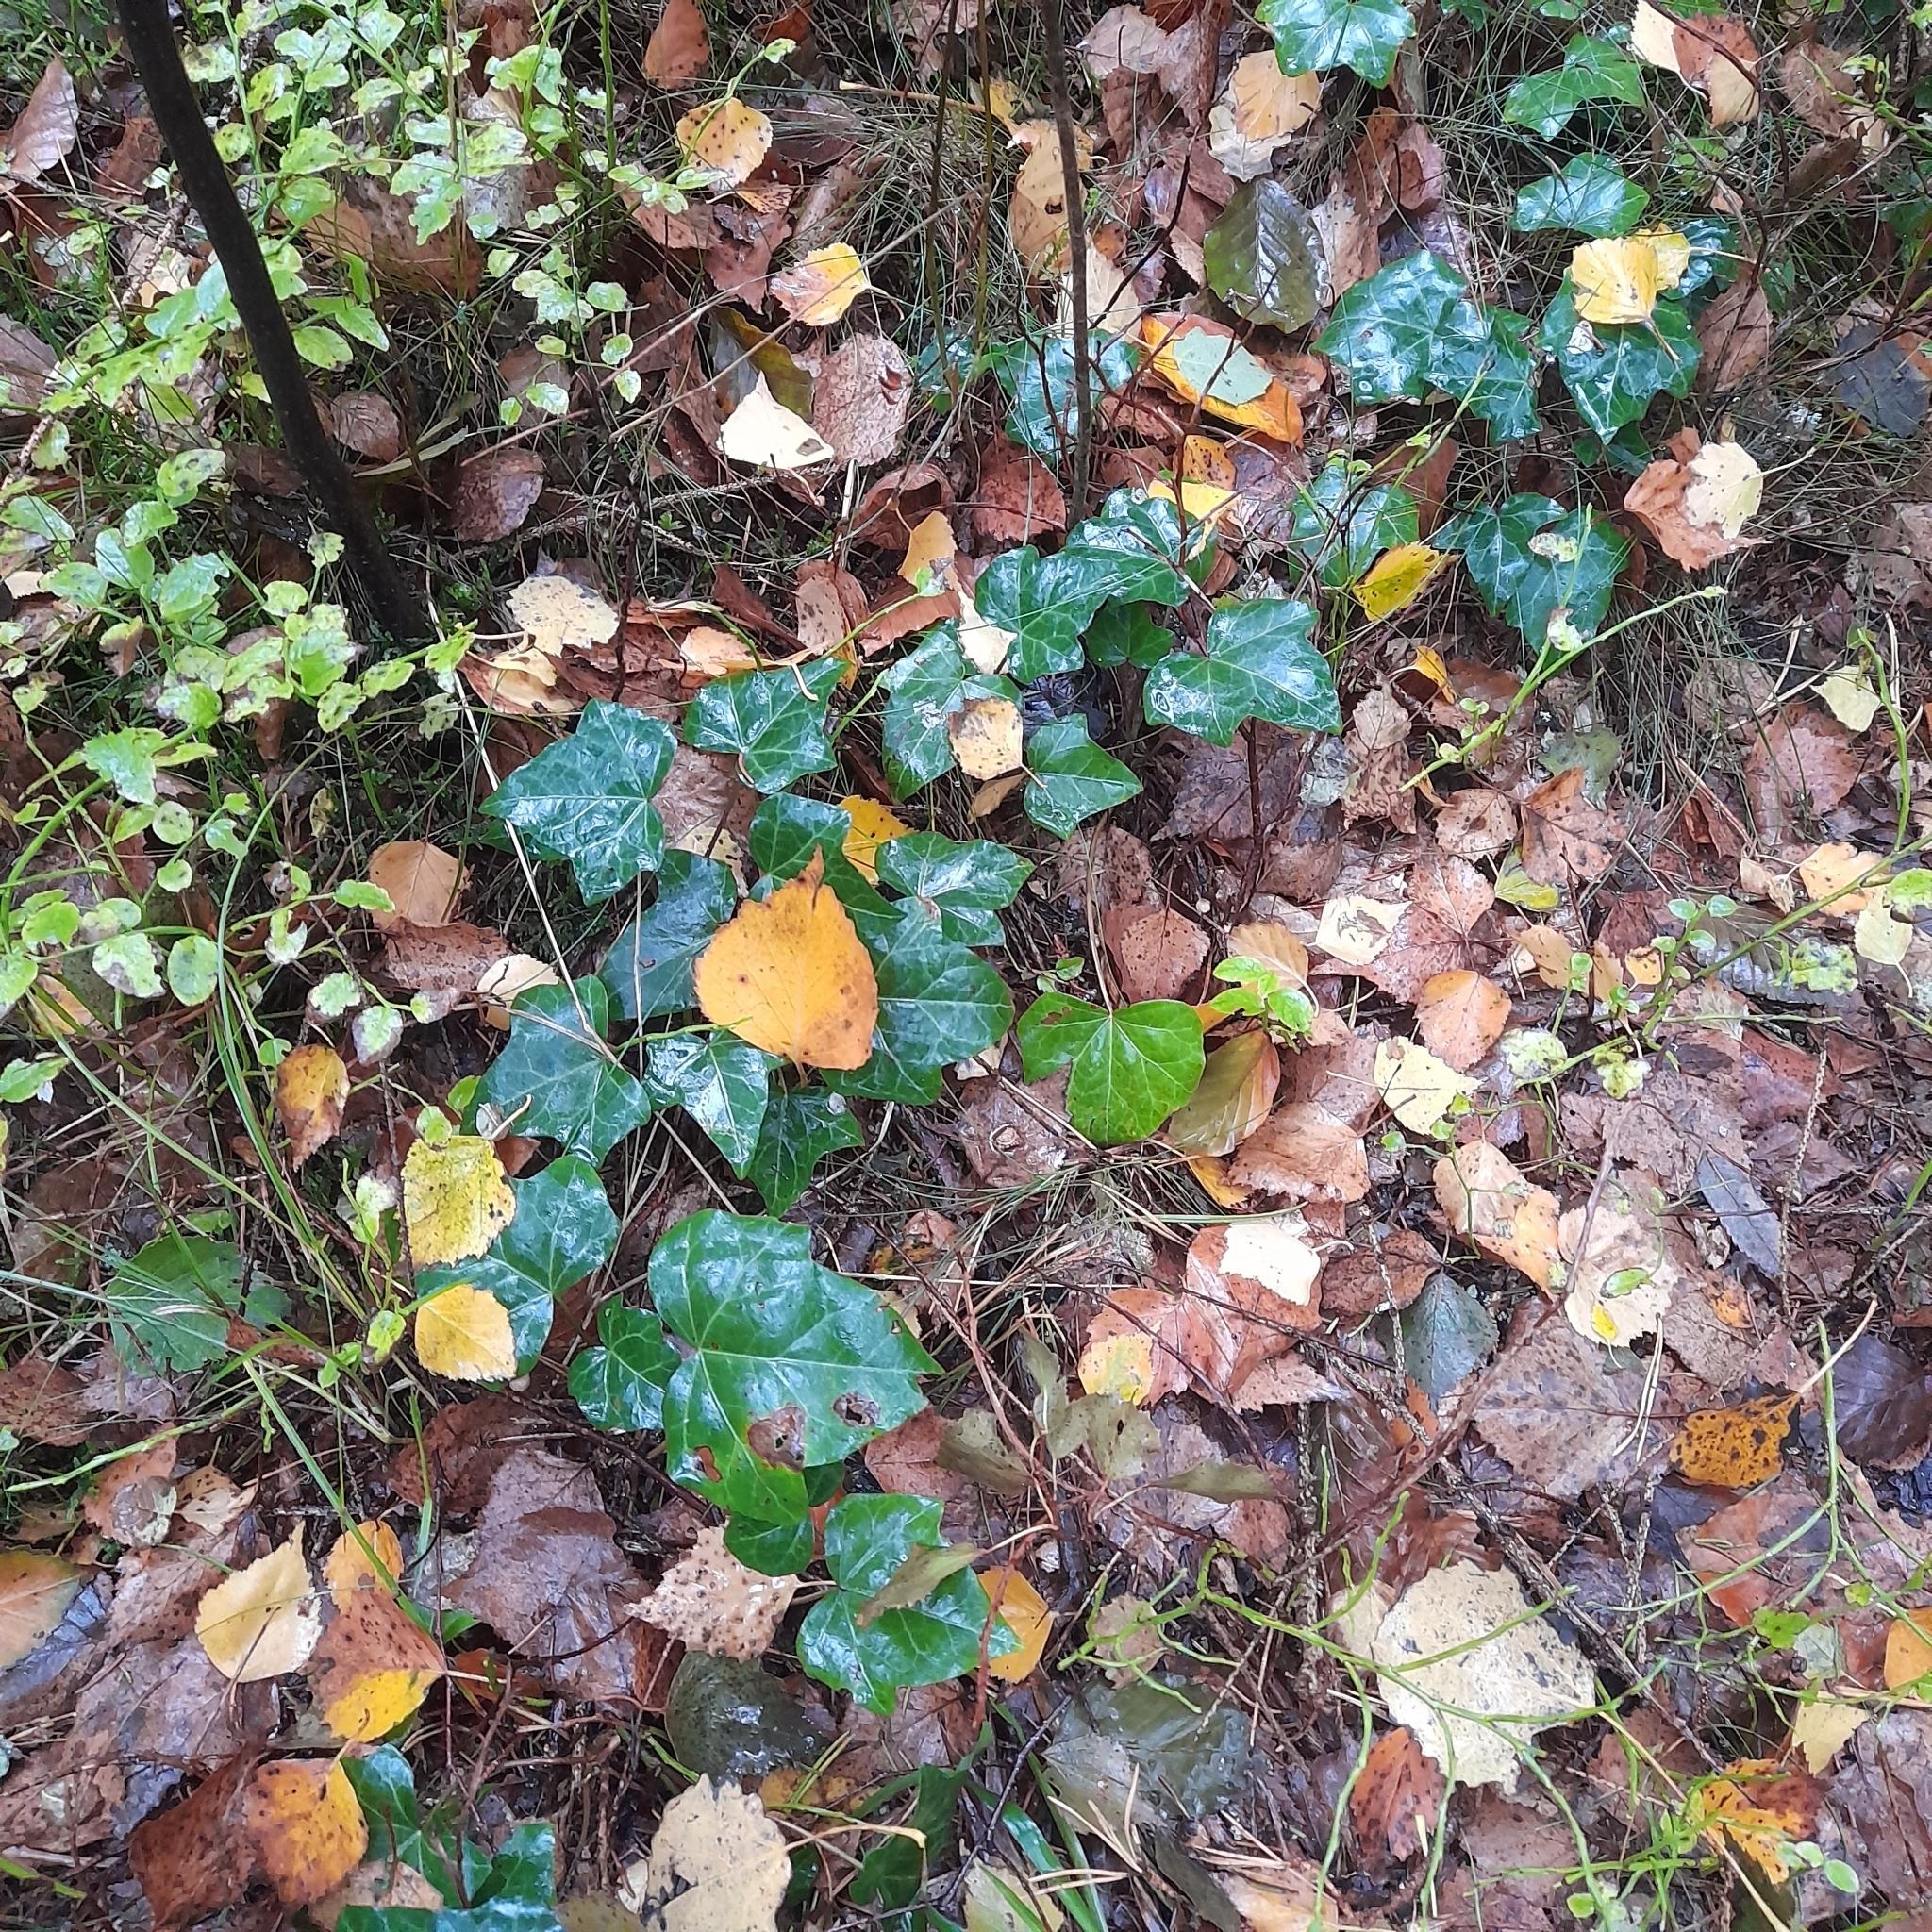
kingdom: Plantae
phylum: Tracheophyta
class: Magnoliopsida
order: Apiales
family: Araliaceae
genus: Hedera
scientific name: Hedera helix
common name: Ivy
